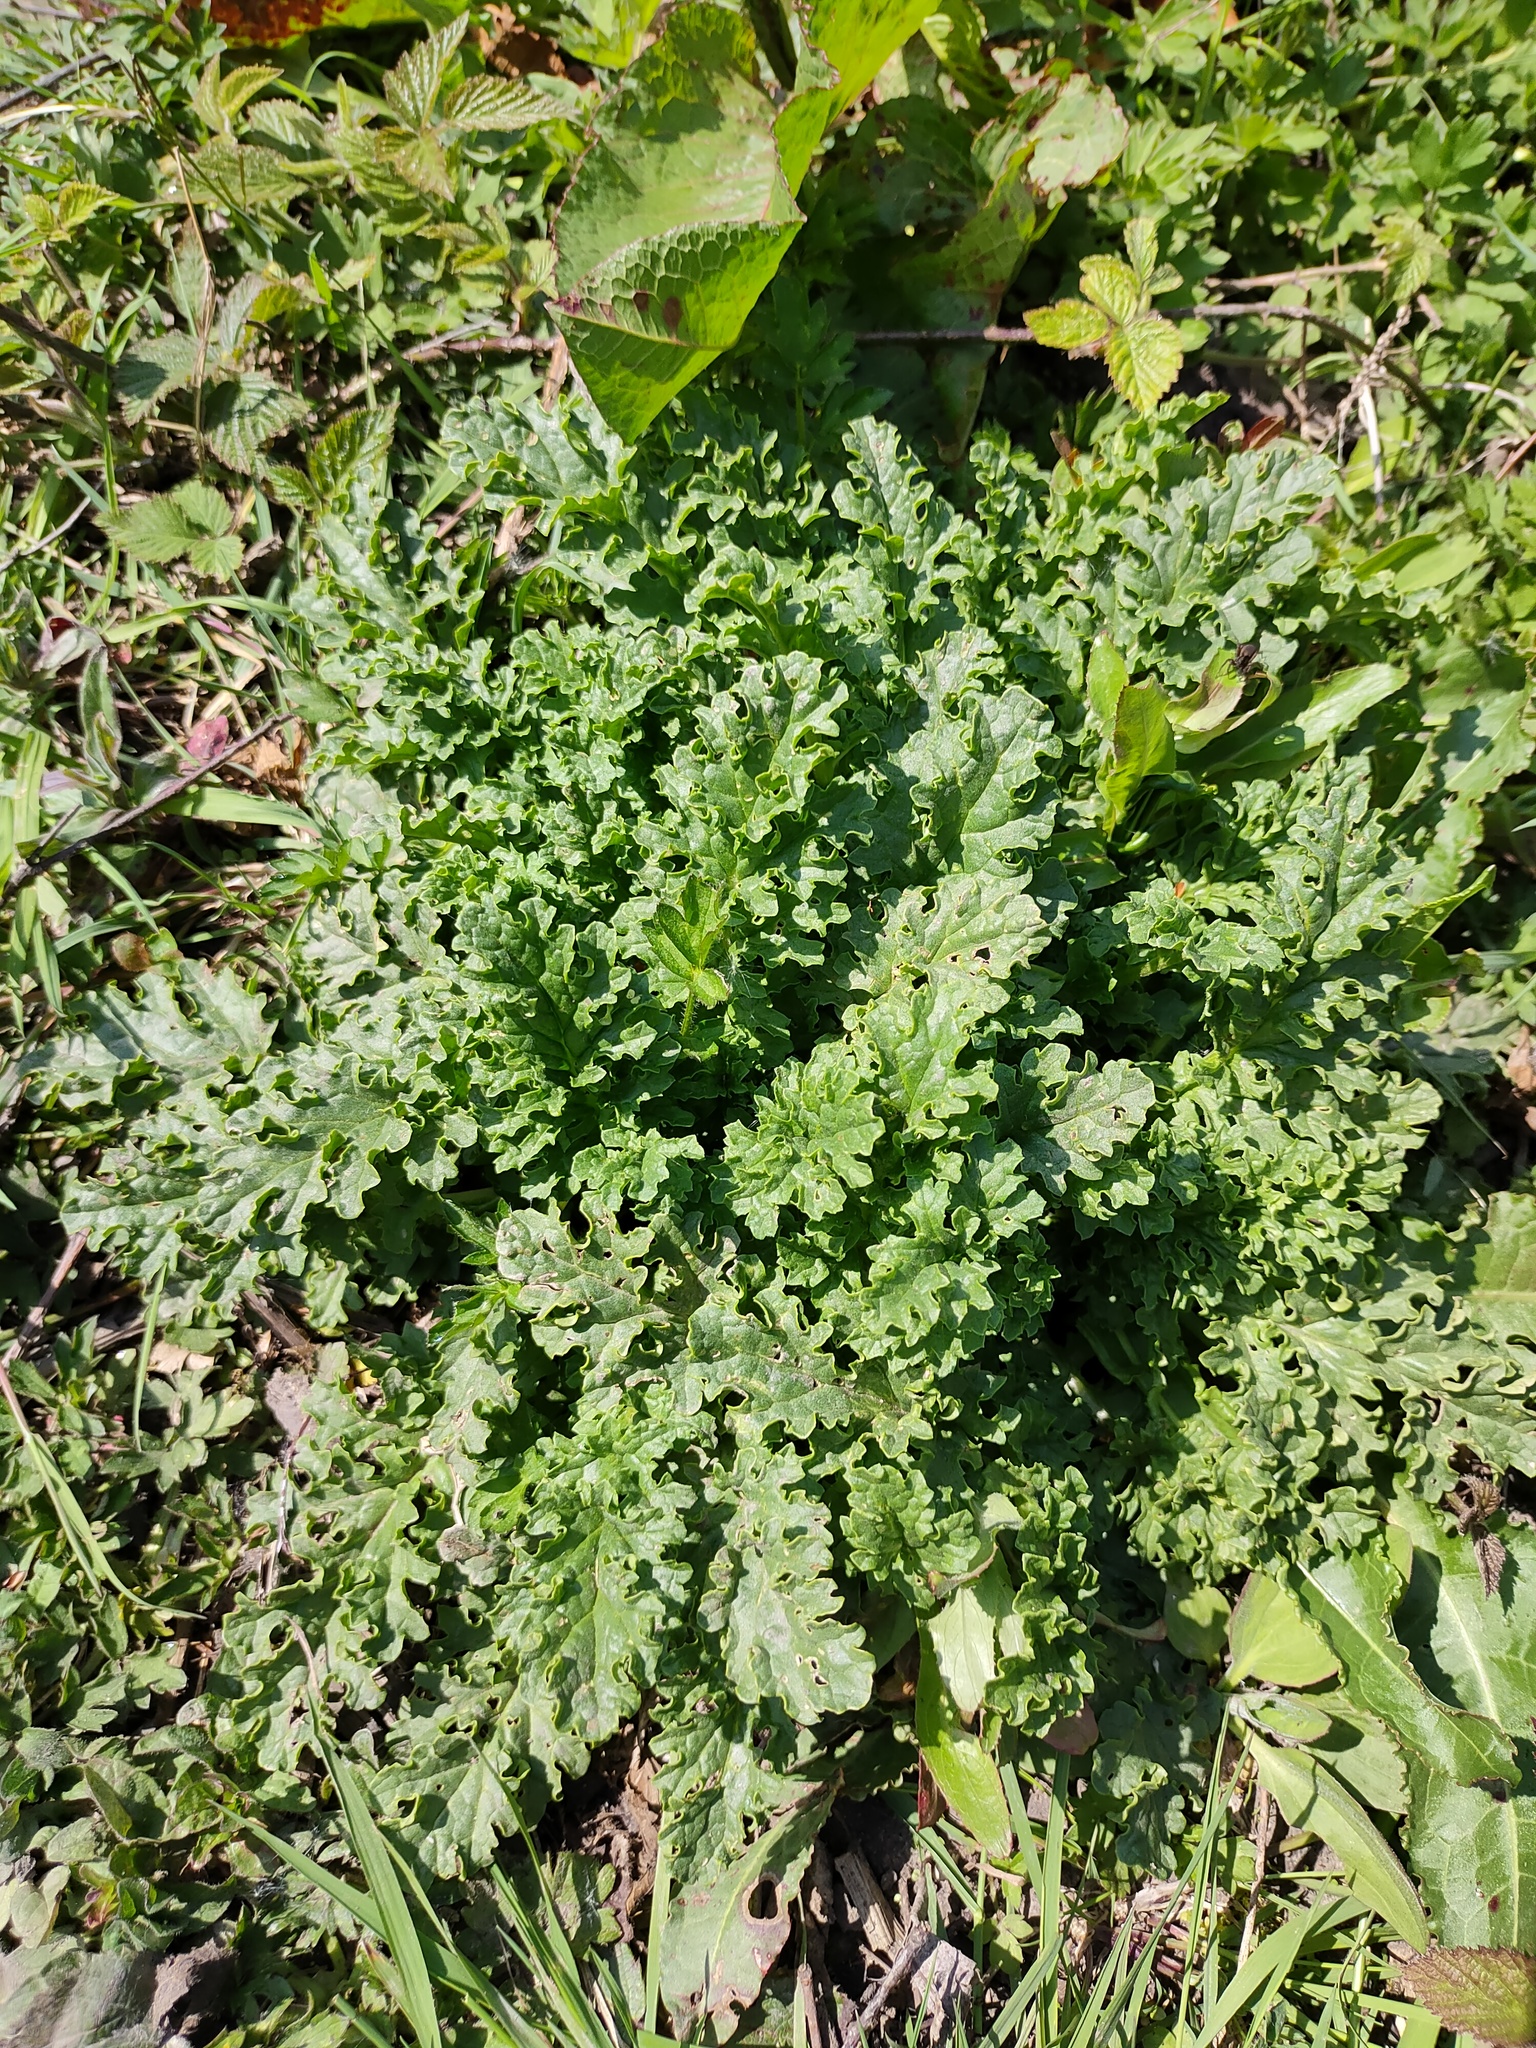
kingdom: Plantae
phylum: Tracheophyta
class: Magnoliopsida
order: Asterales
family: Asteraceae
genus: Jacobaea
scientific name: Jacobaea vulgaris
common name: Stinking willie
